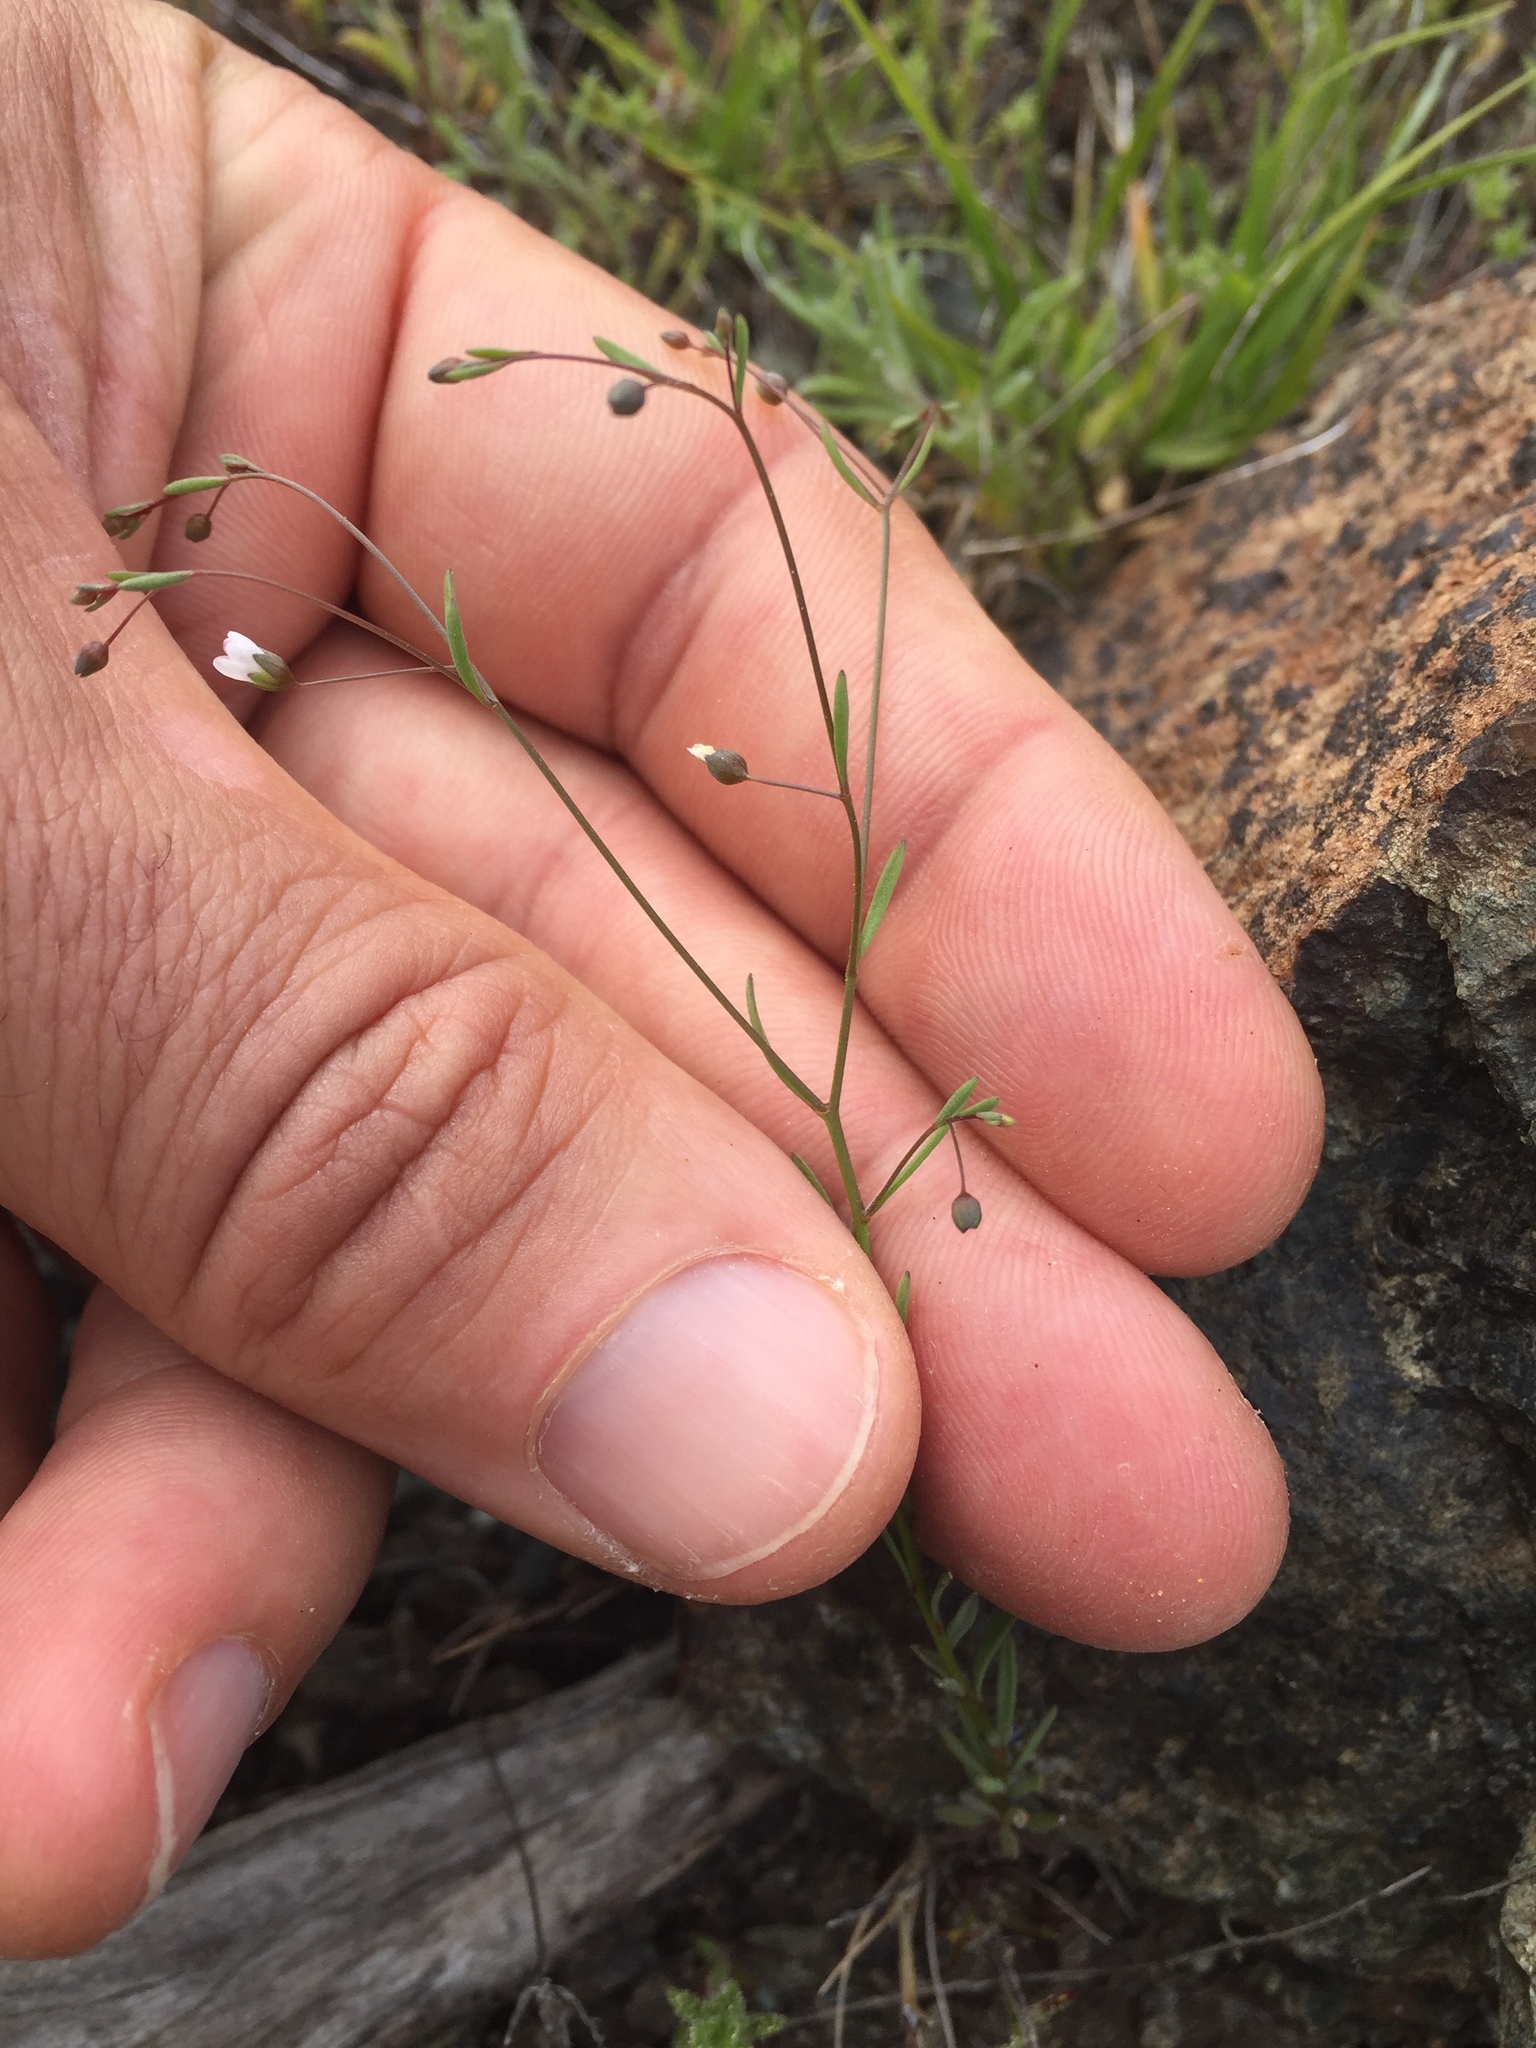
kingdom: Plantae
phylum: Tracheophyta
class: Magnoliopsida
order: Malpighiales
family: Linaceae
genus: Hesperolinon
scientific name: Hesperolinon micranthum
